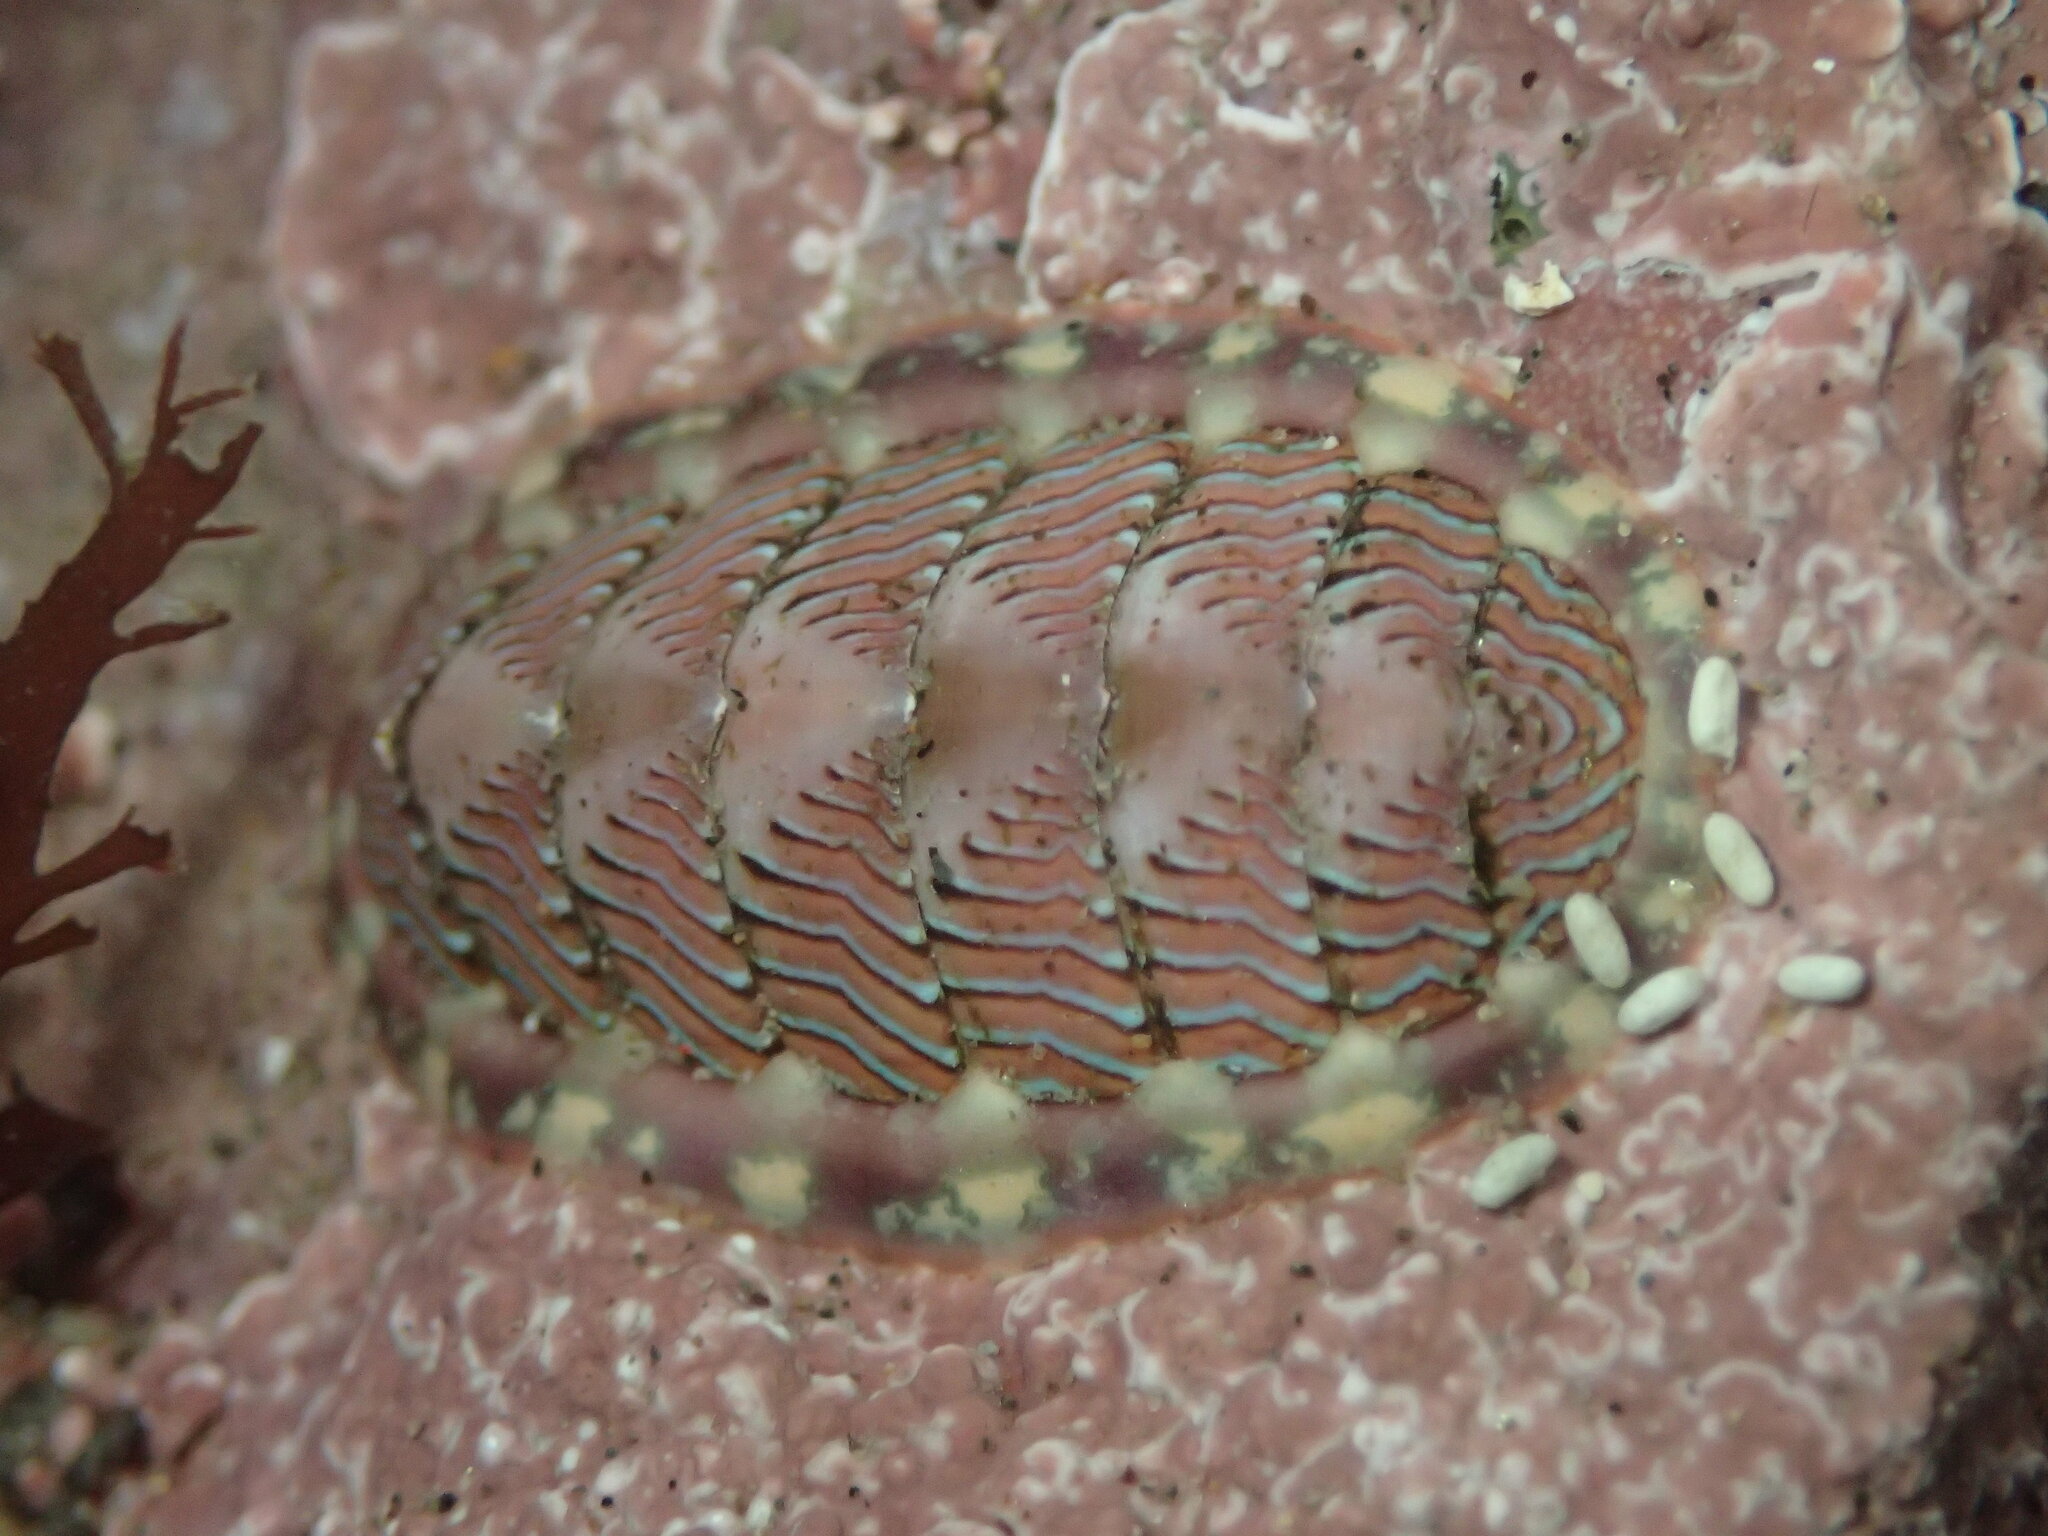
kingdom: Animalia
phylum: Mollusca
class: Polyplacophora
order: Chitonida
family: Tonicellidae
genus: Tonicella
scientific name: Tonicella lineata
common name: Lined chiton
